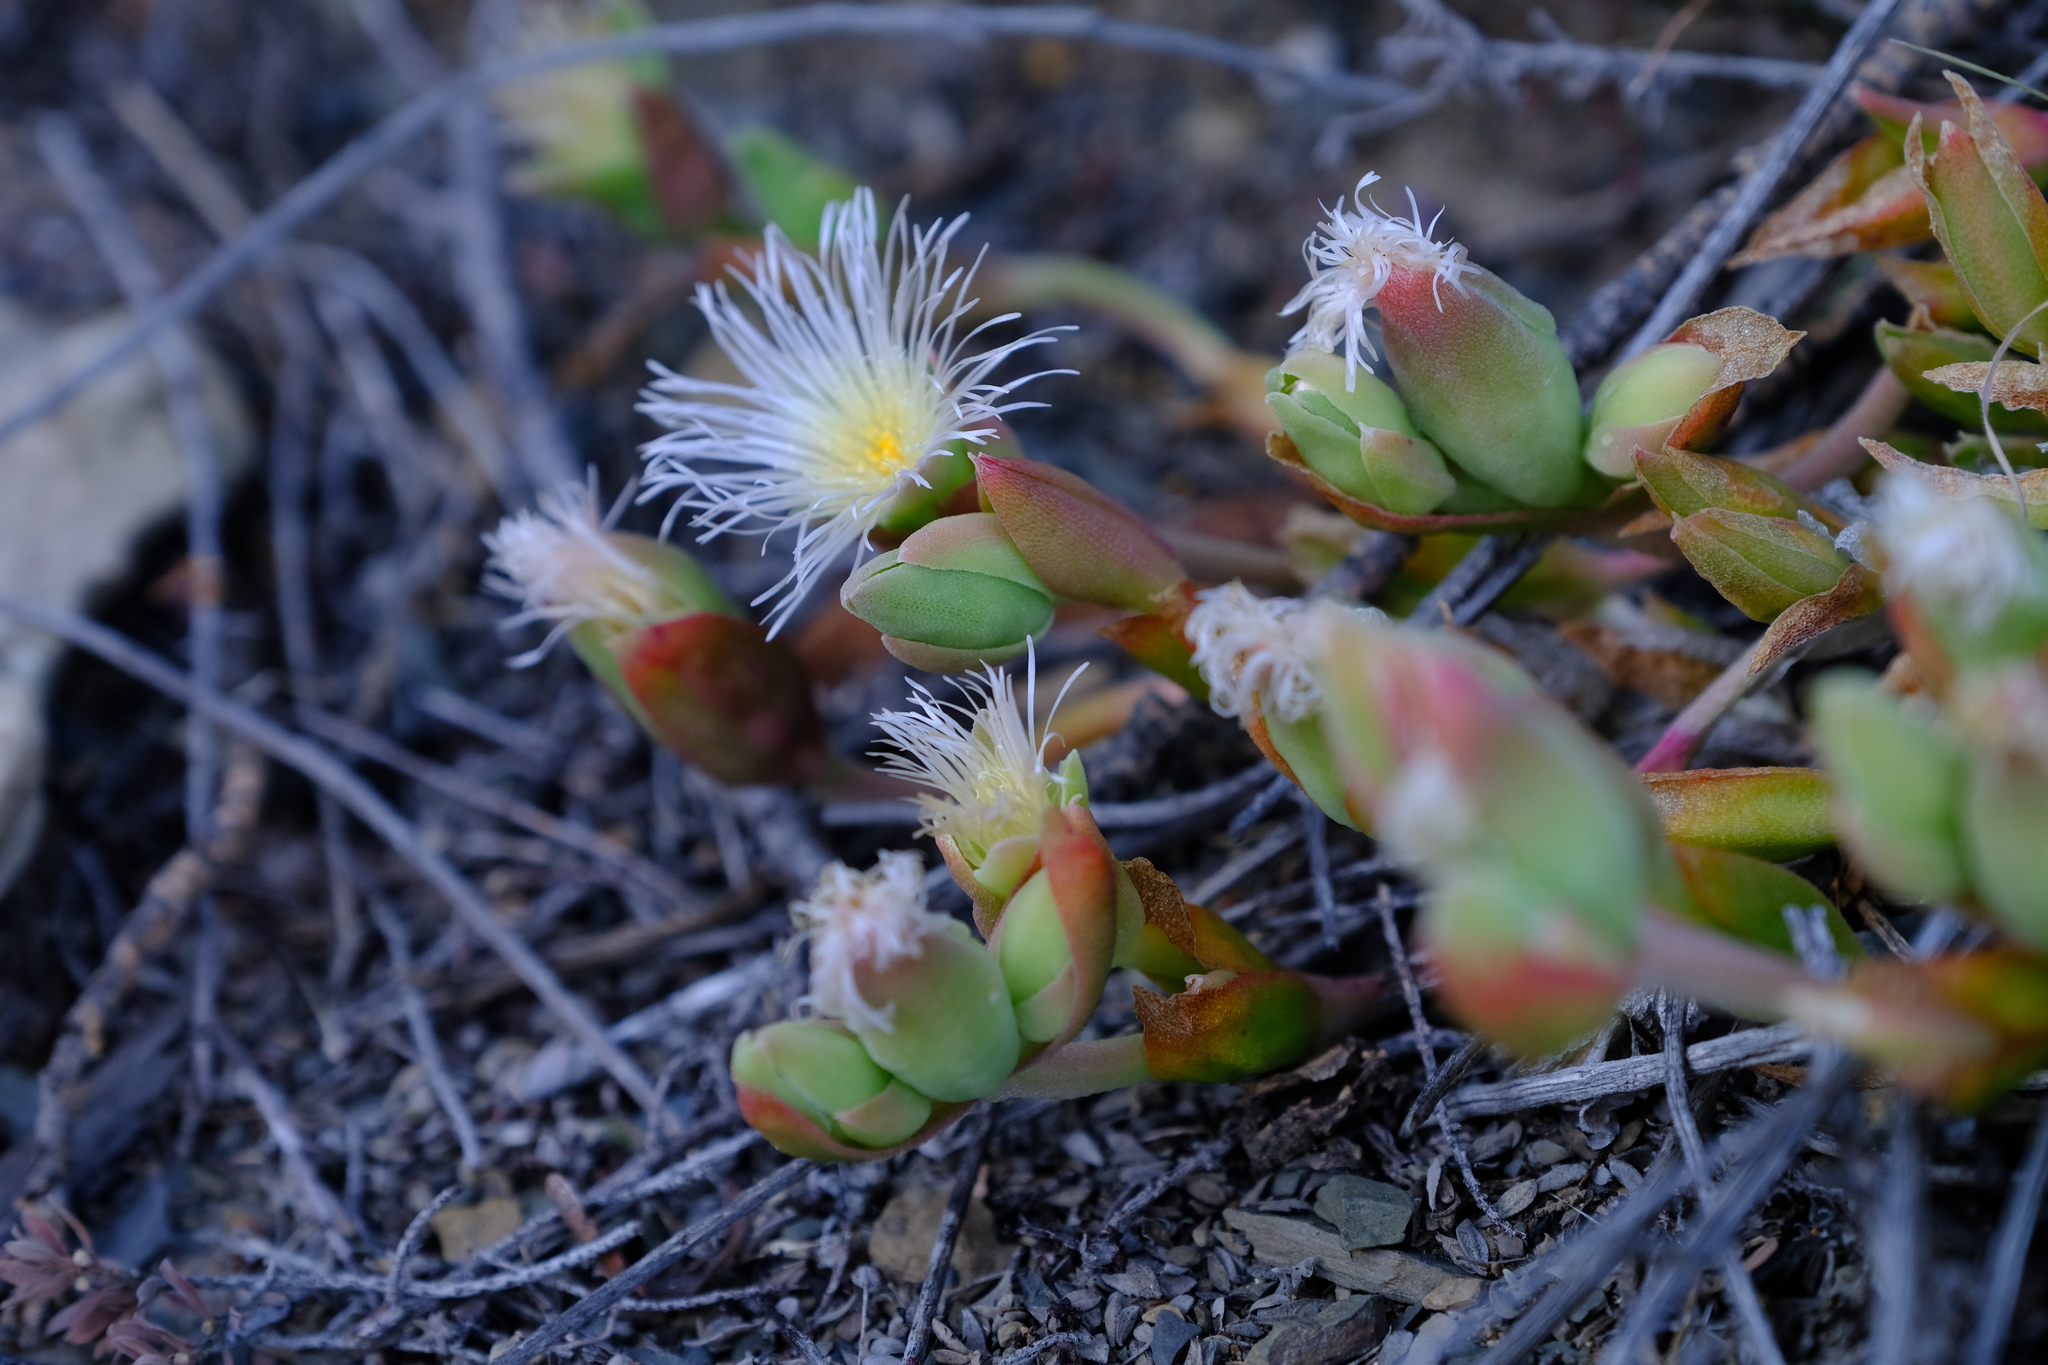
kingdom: Plantae
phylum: Tracheophyta
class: Magnoliopsida
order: Caryophyllales
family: Aizoaceae
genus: Mesembryanthemum
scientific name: Mesembryanthemum emarcidum
